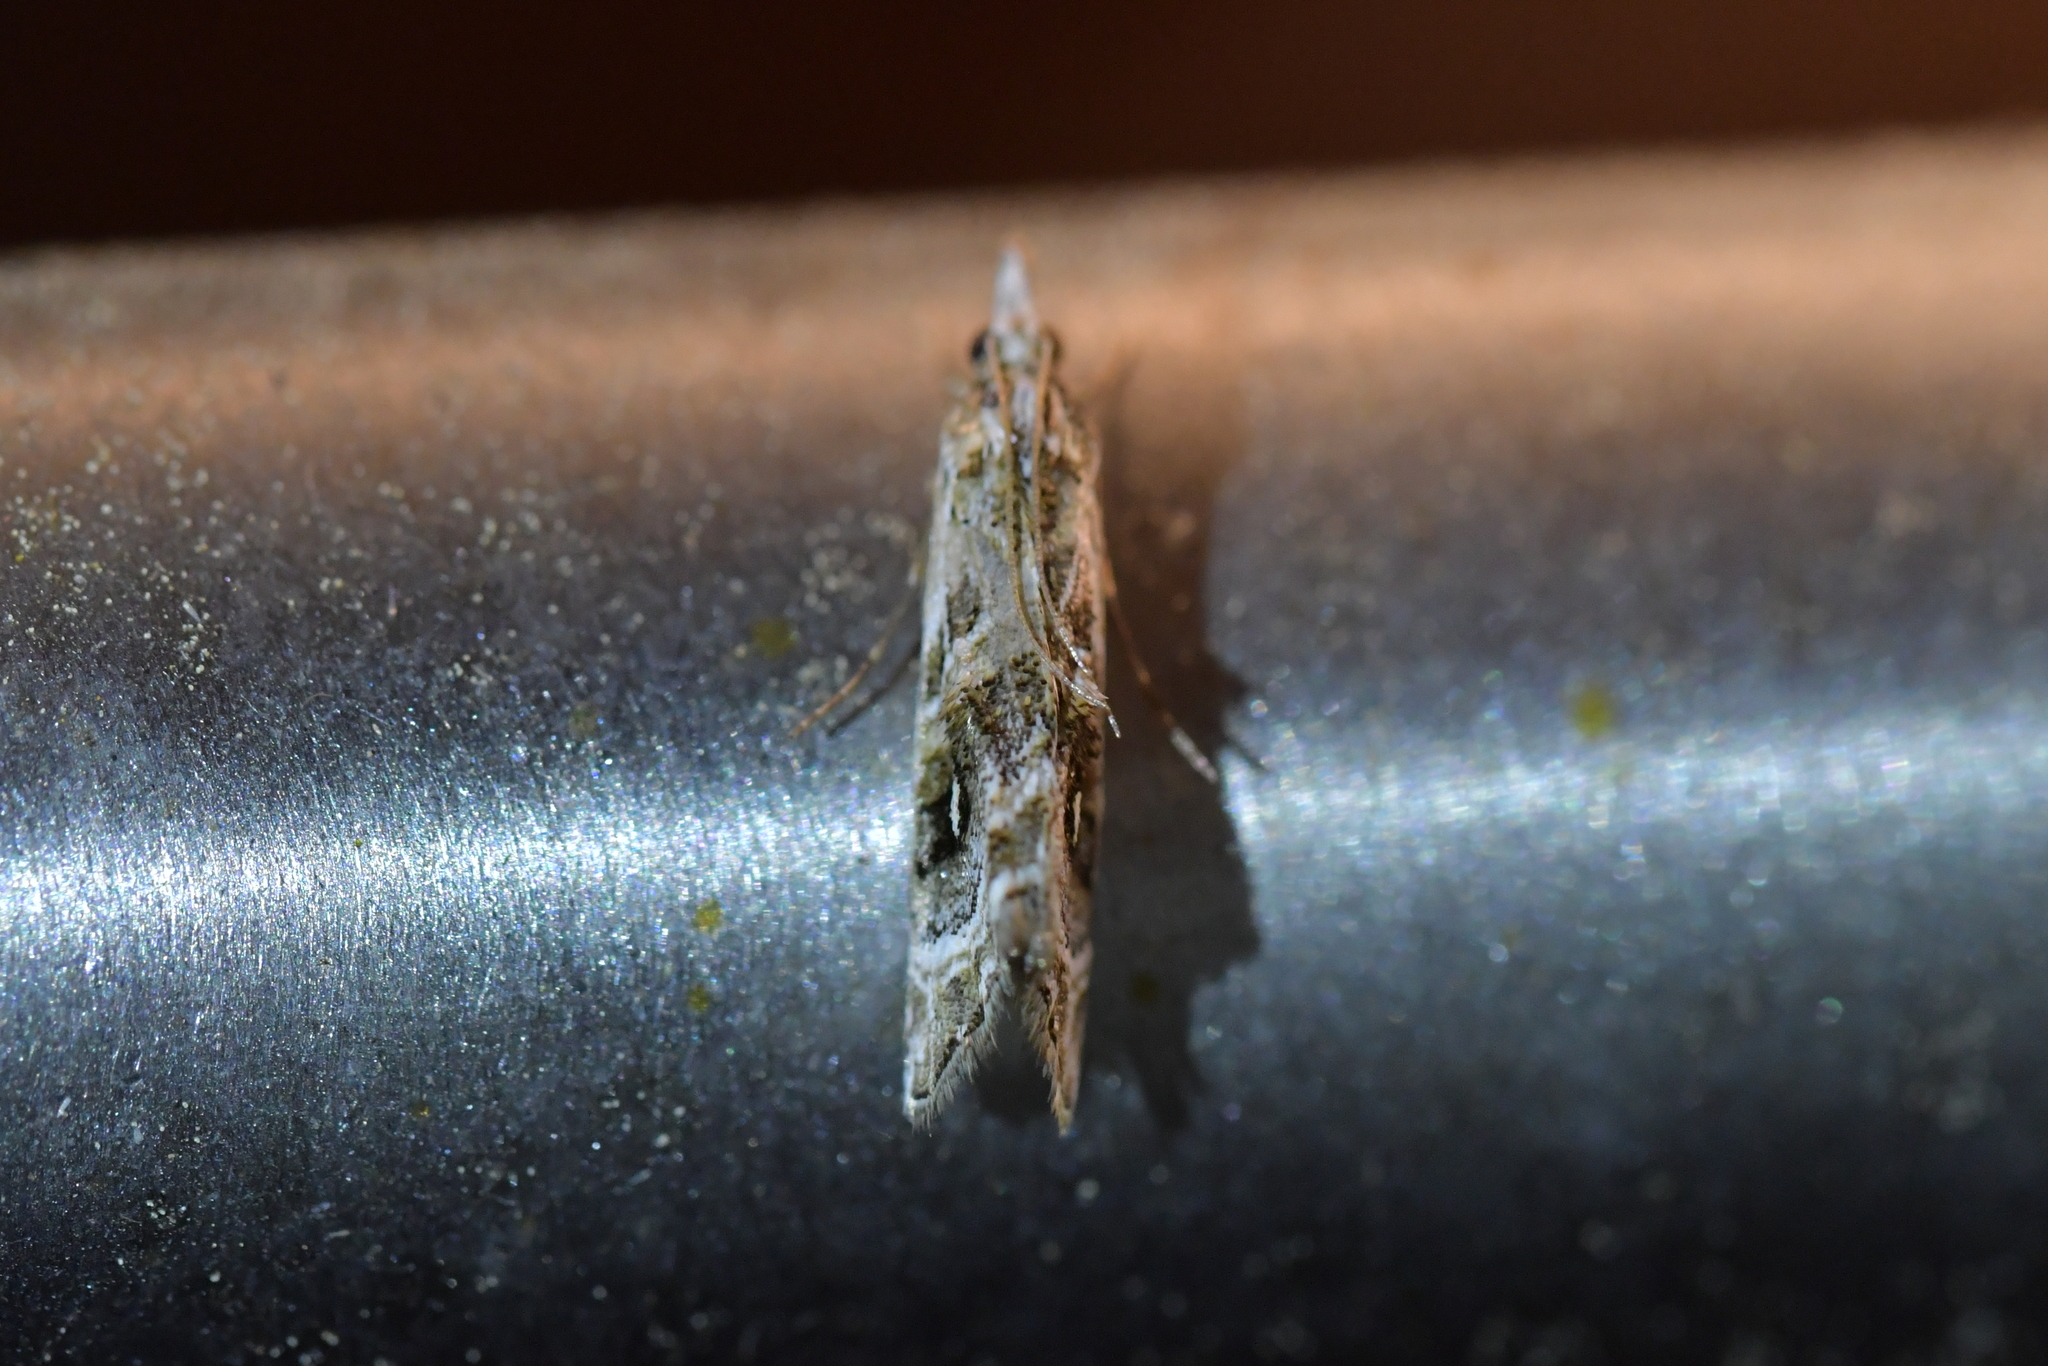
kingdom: Animalia
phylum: Arthropoda
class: Insecta
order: Lepidoptera
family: Crambidae
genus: Gadira
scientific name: Gadira acerella
